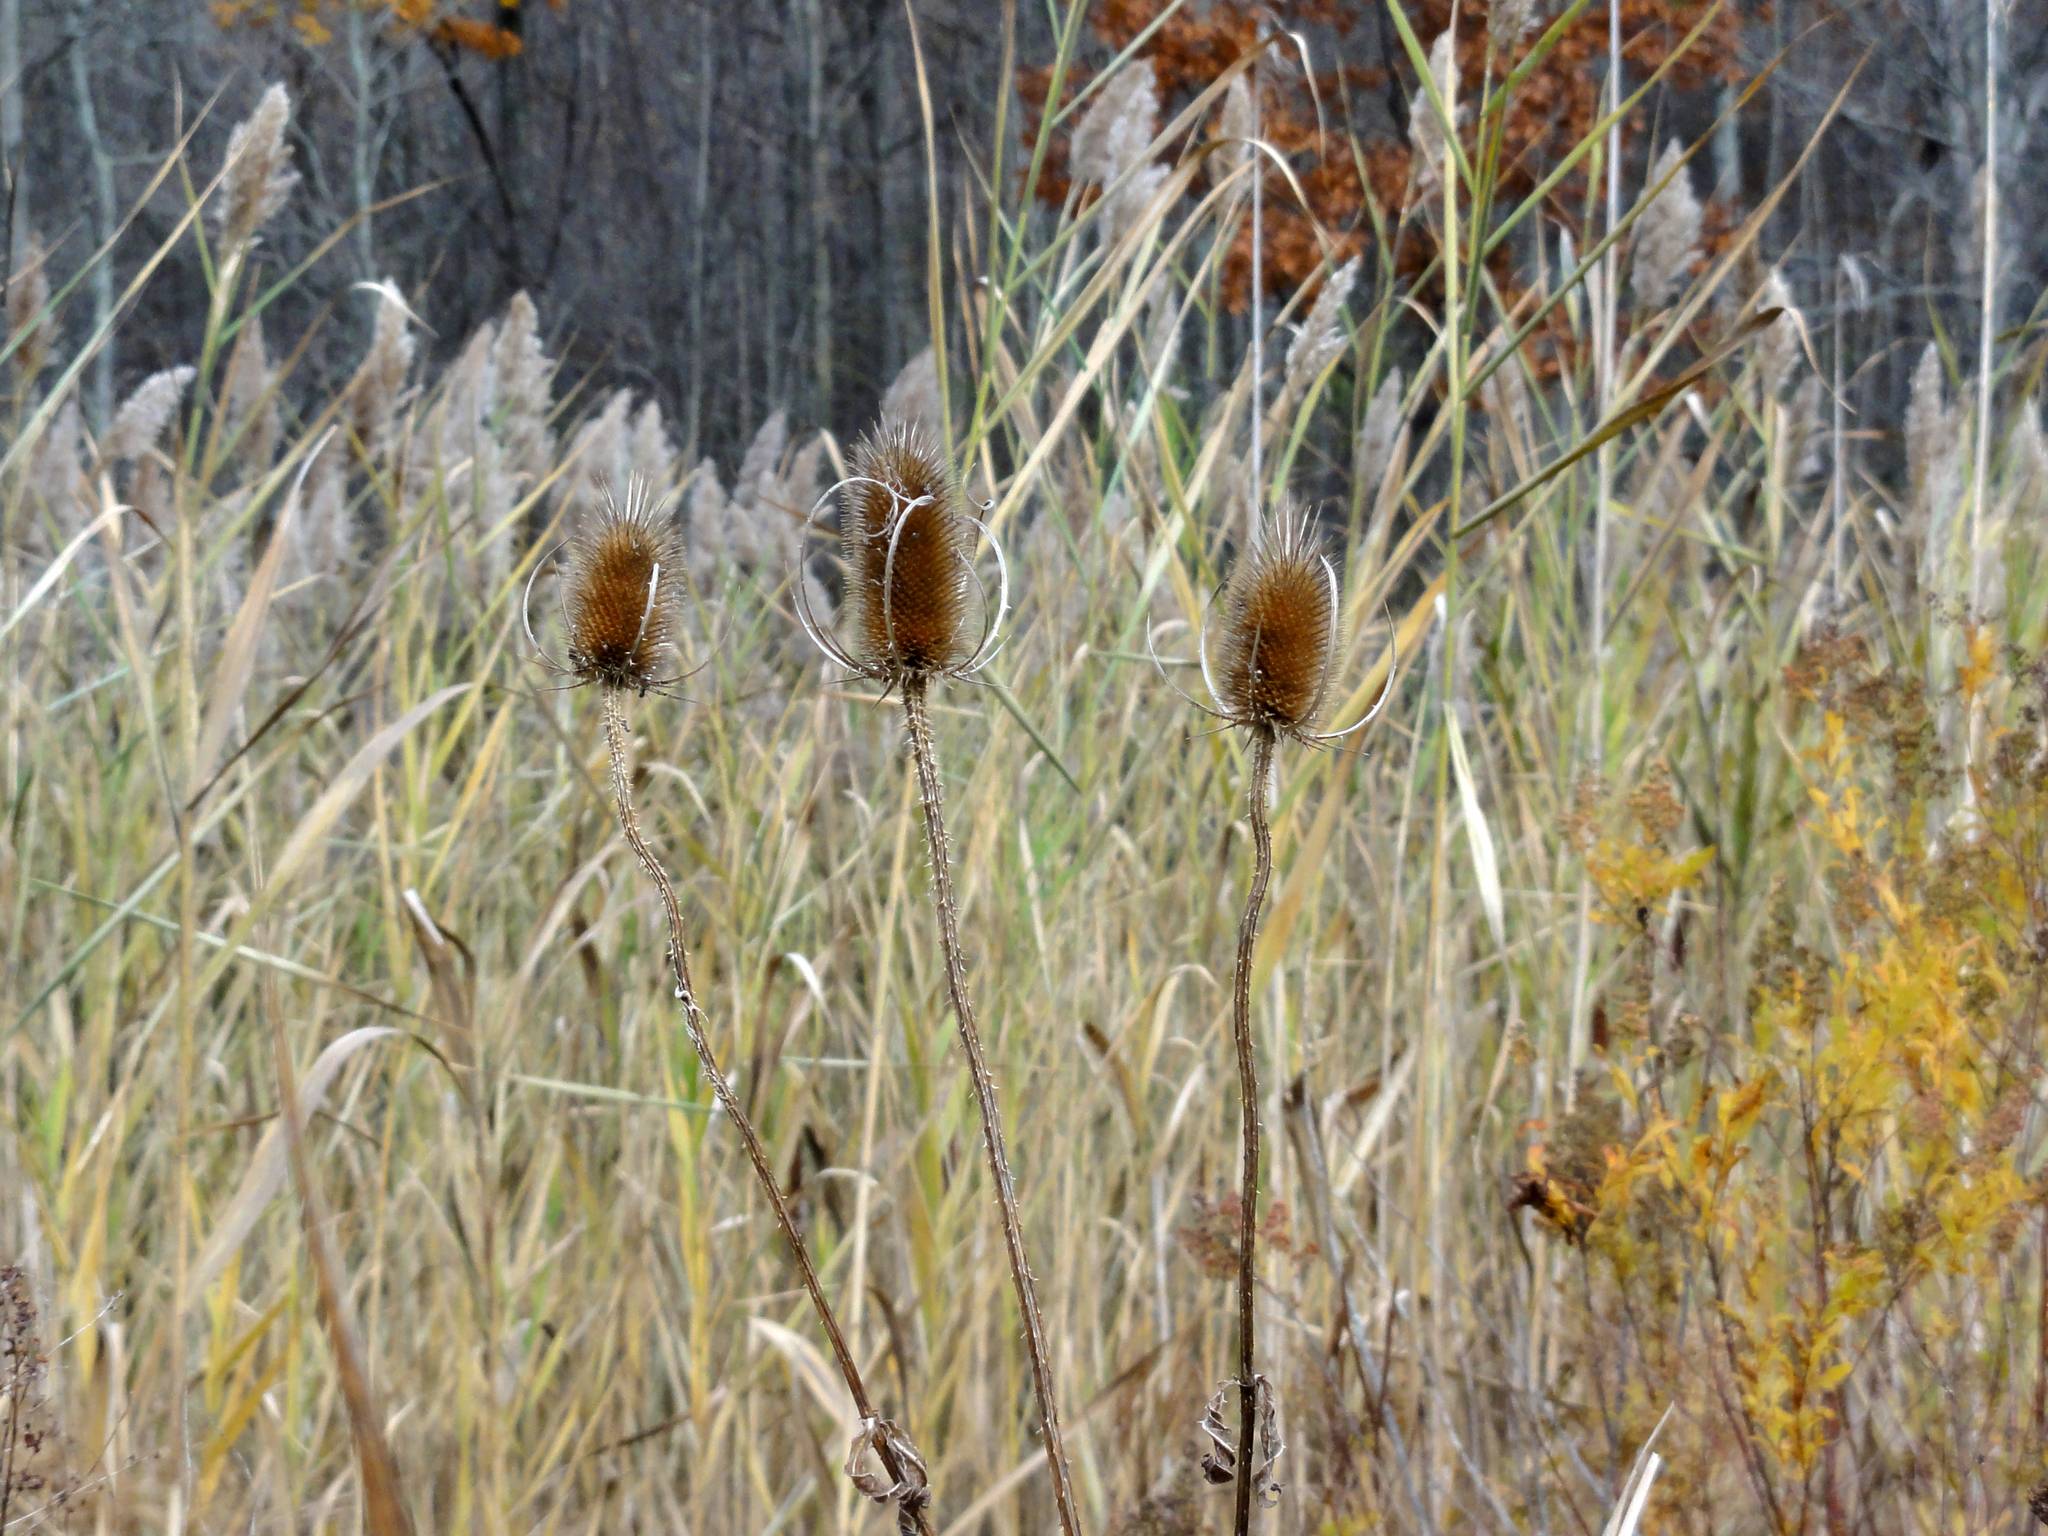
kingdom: Plantae
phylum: Tracheophyta
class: Magnoliopsida
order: Dipsacales
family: Caprifoliaceae
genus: Dipsacus
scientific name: Dipsacus fullonum
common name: Teasel
